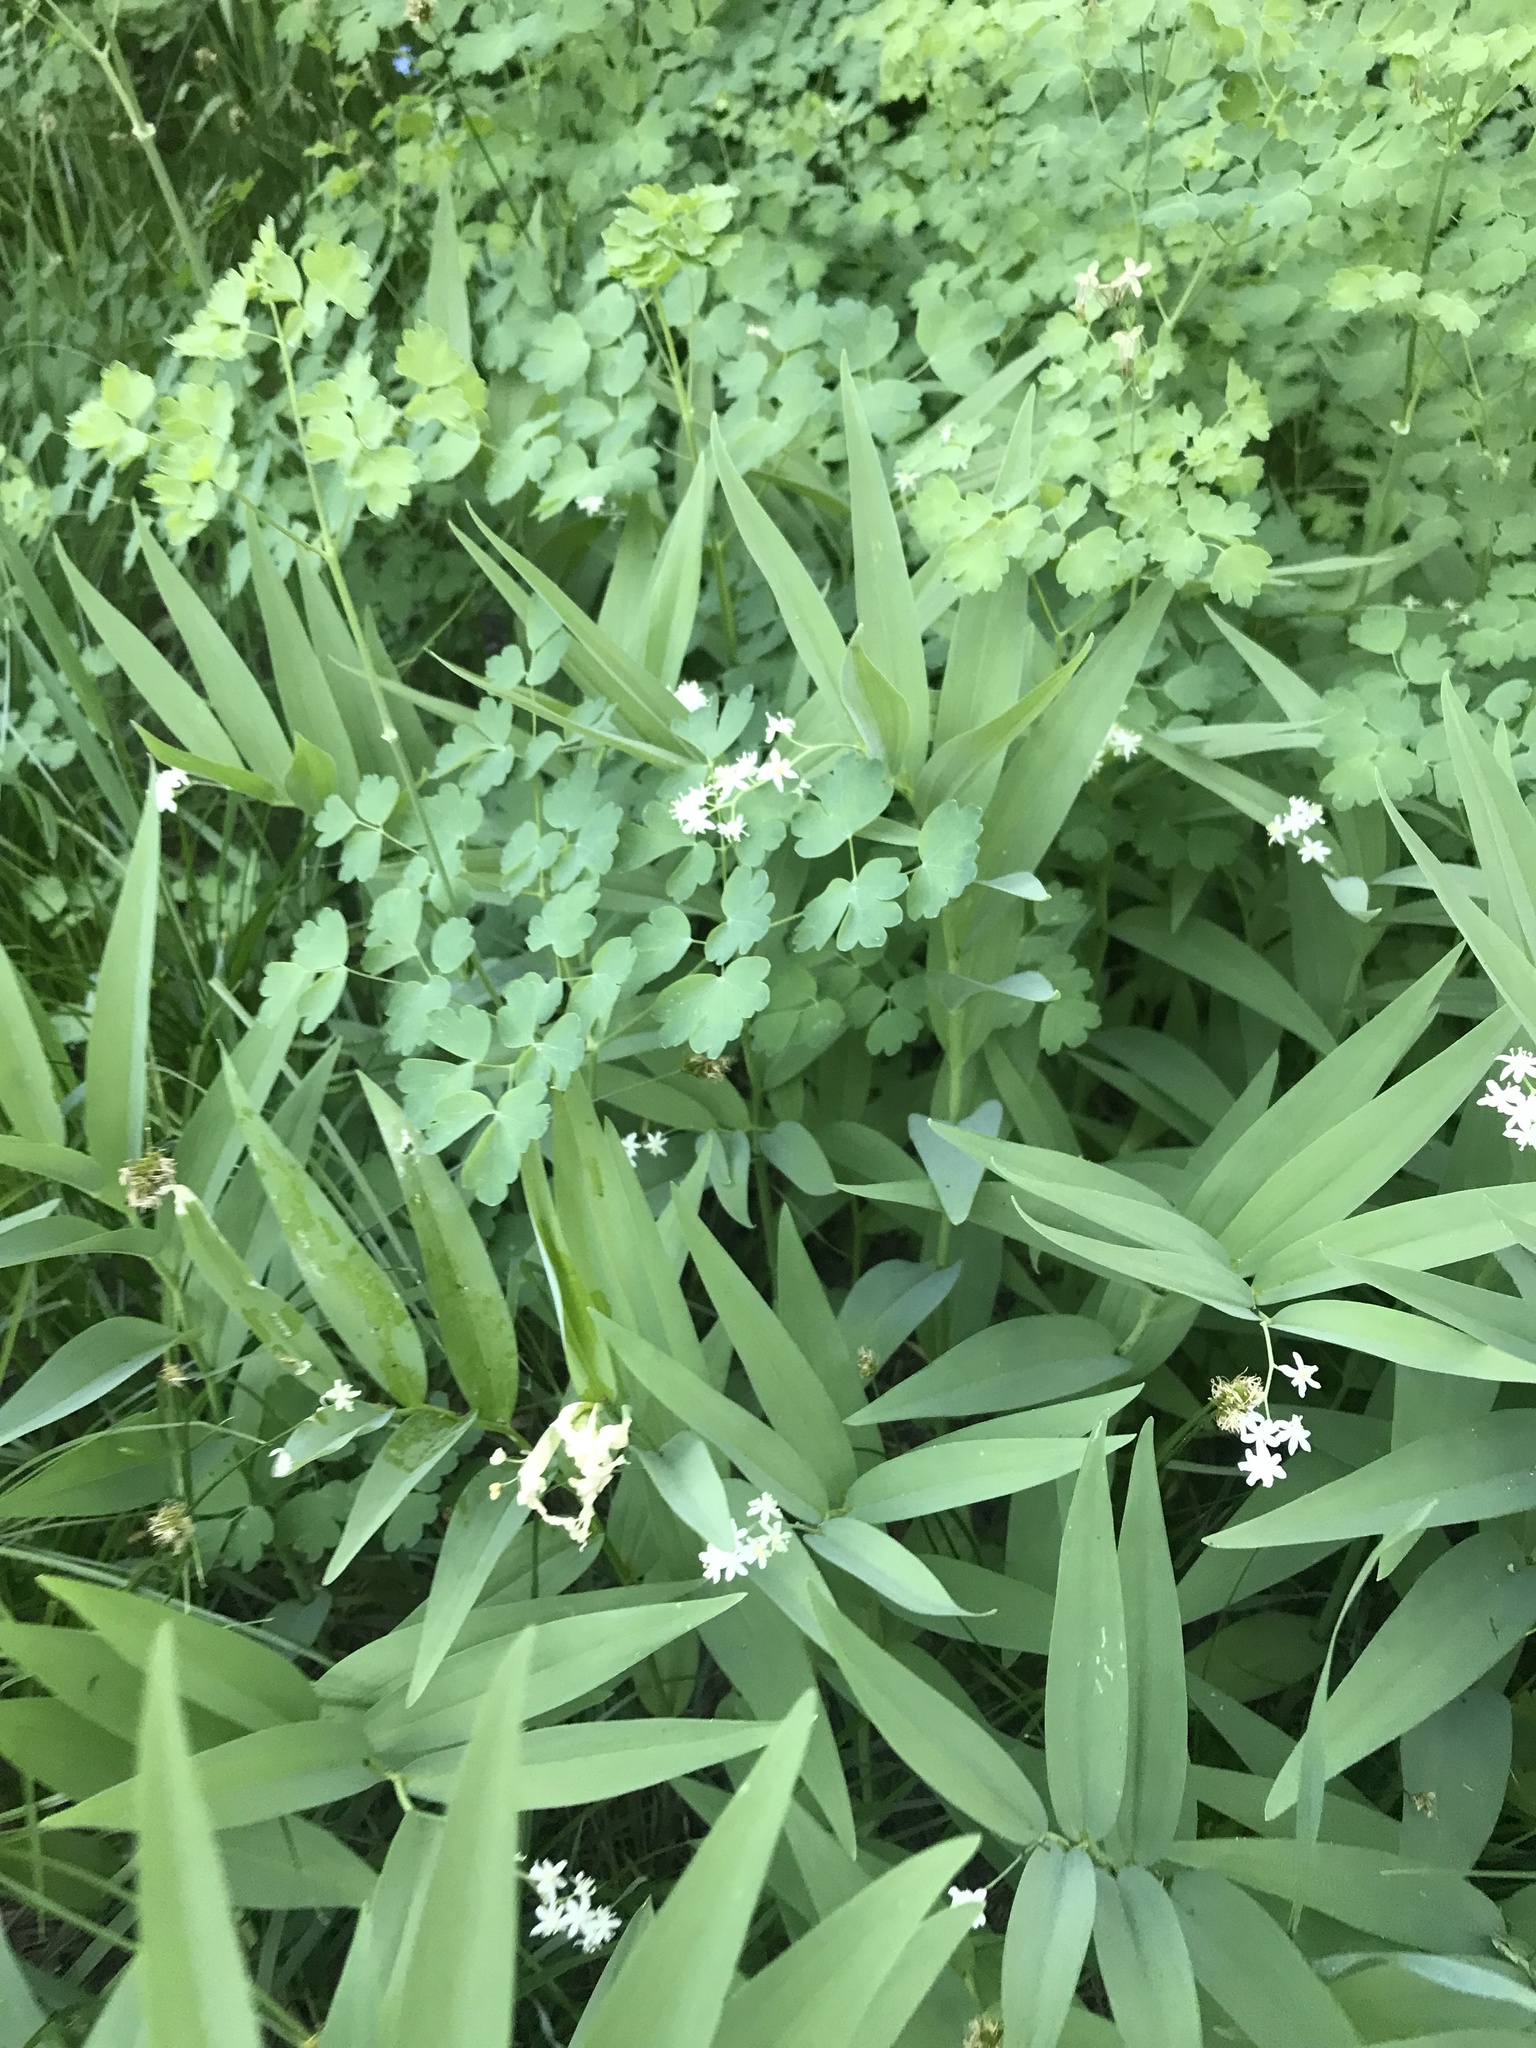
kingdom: Plantae
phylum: Tracheophyta
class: Liliopsida
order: Asparagales
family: Asparagaceae
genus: Maianthemum
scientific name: Maianthemum stellatum
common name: Little false solomon's seal
